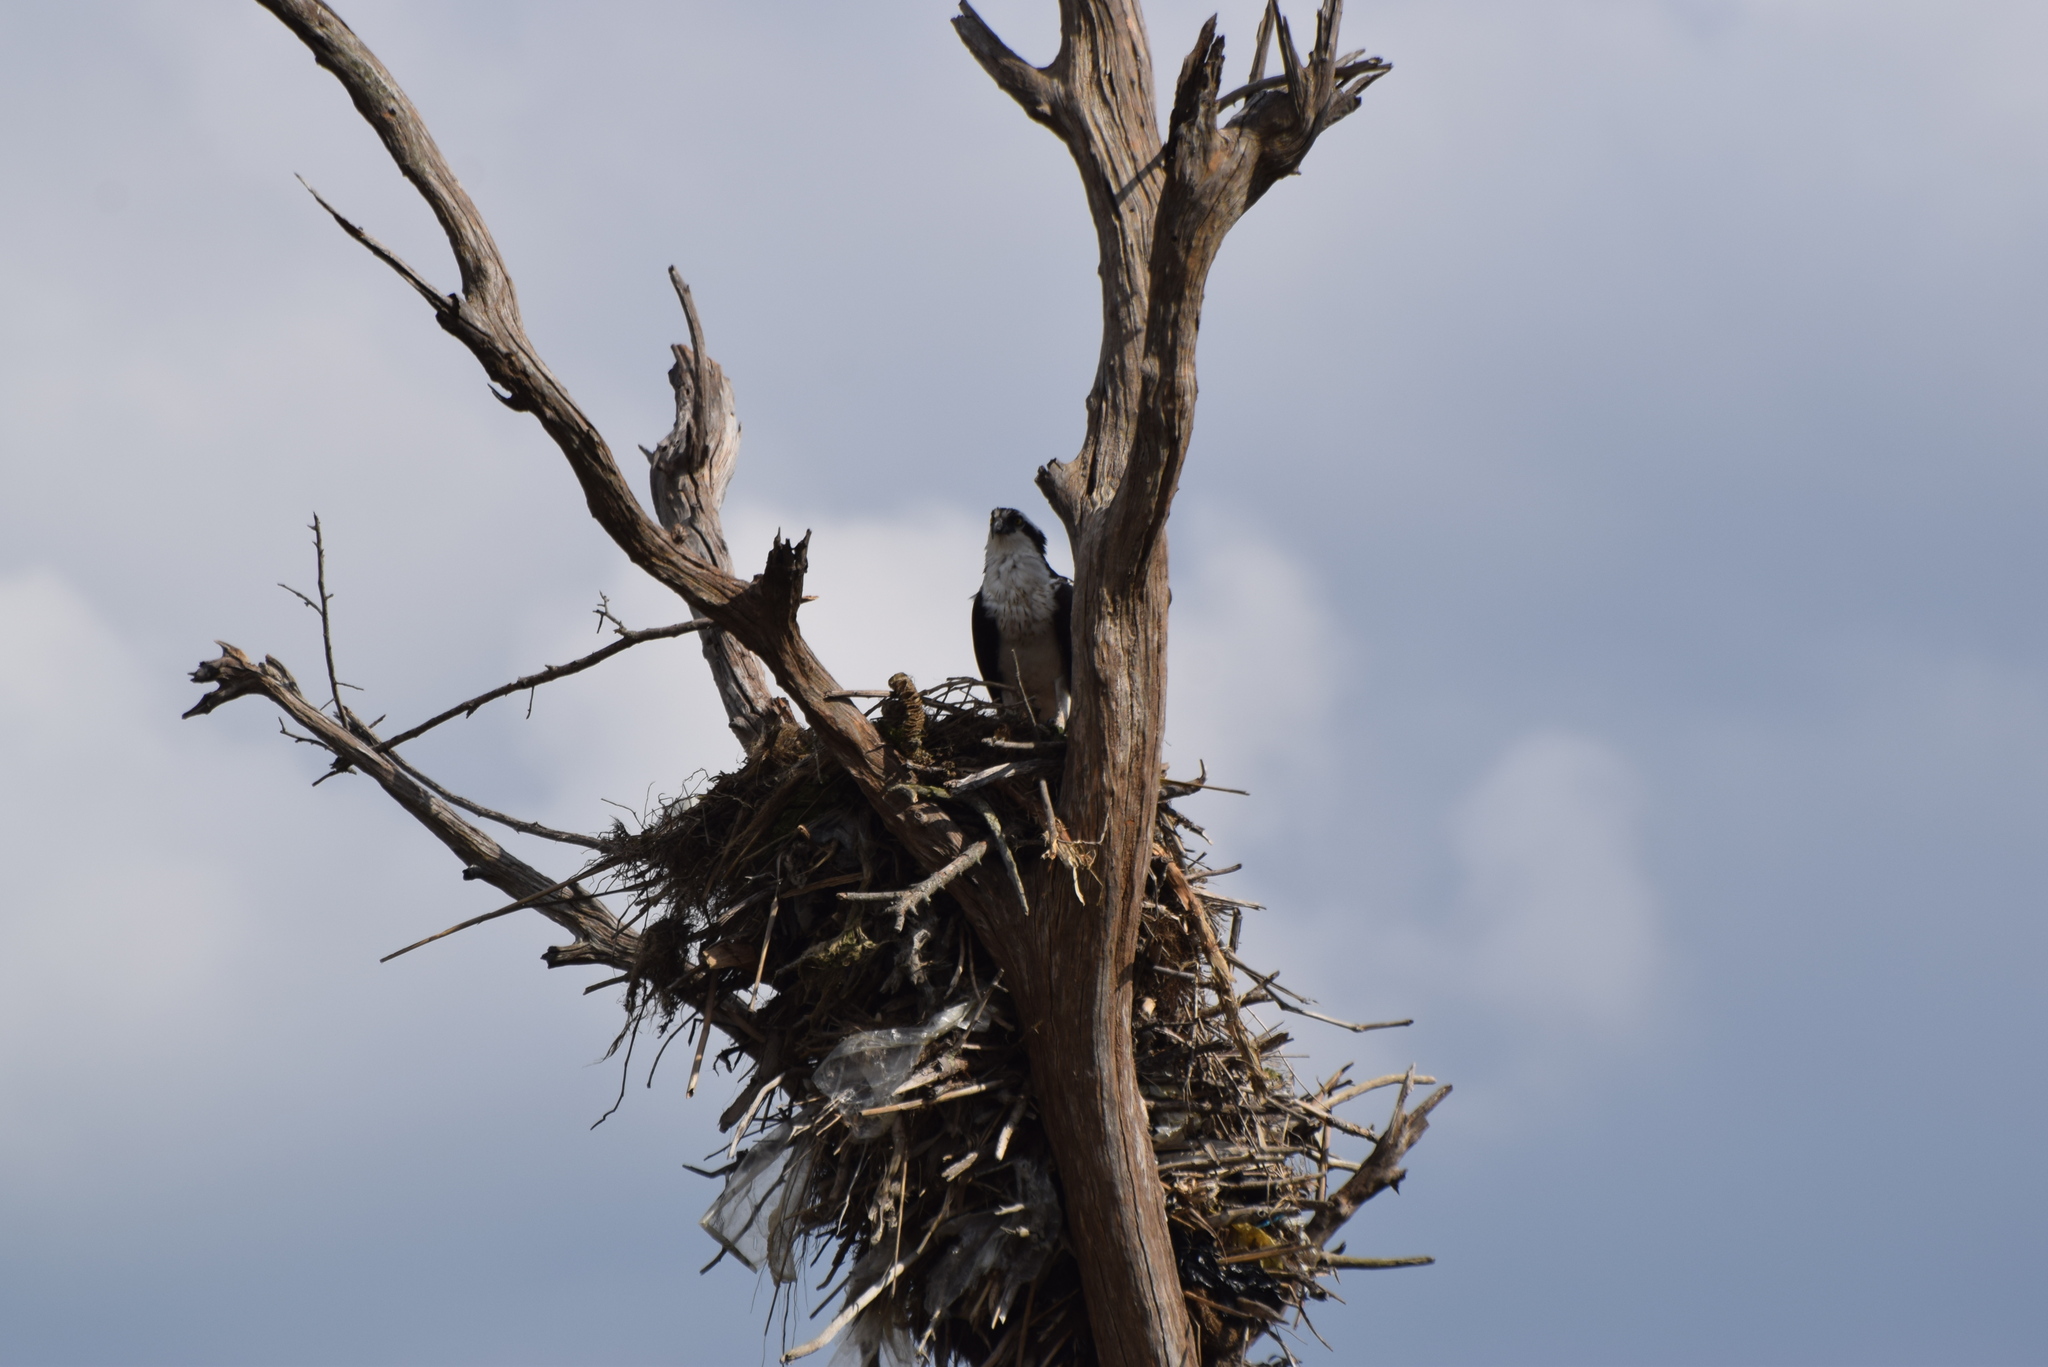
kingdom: Animalia
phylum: Chordata
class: Aves
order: Accipitriformes
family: Pandionidae
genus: Pandion
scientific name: Pandion haliaetus
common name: Osprey
